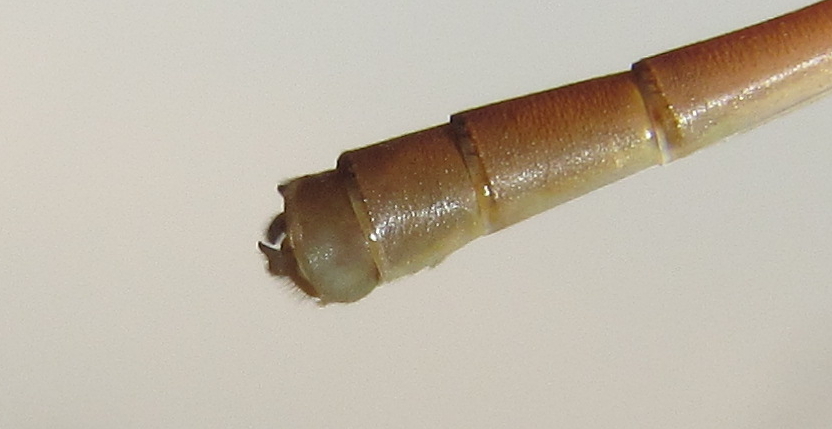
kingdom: Animalia
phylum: Arthropoda
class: Insecta
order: Odonata
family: Coenagrionidae
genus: Ceriagrion
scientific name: Ceriagrion glabrum
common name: Common pond damsel
